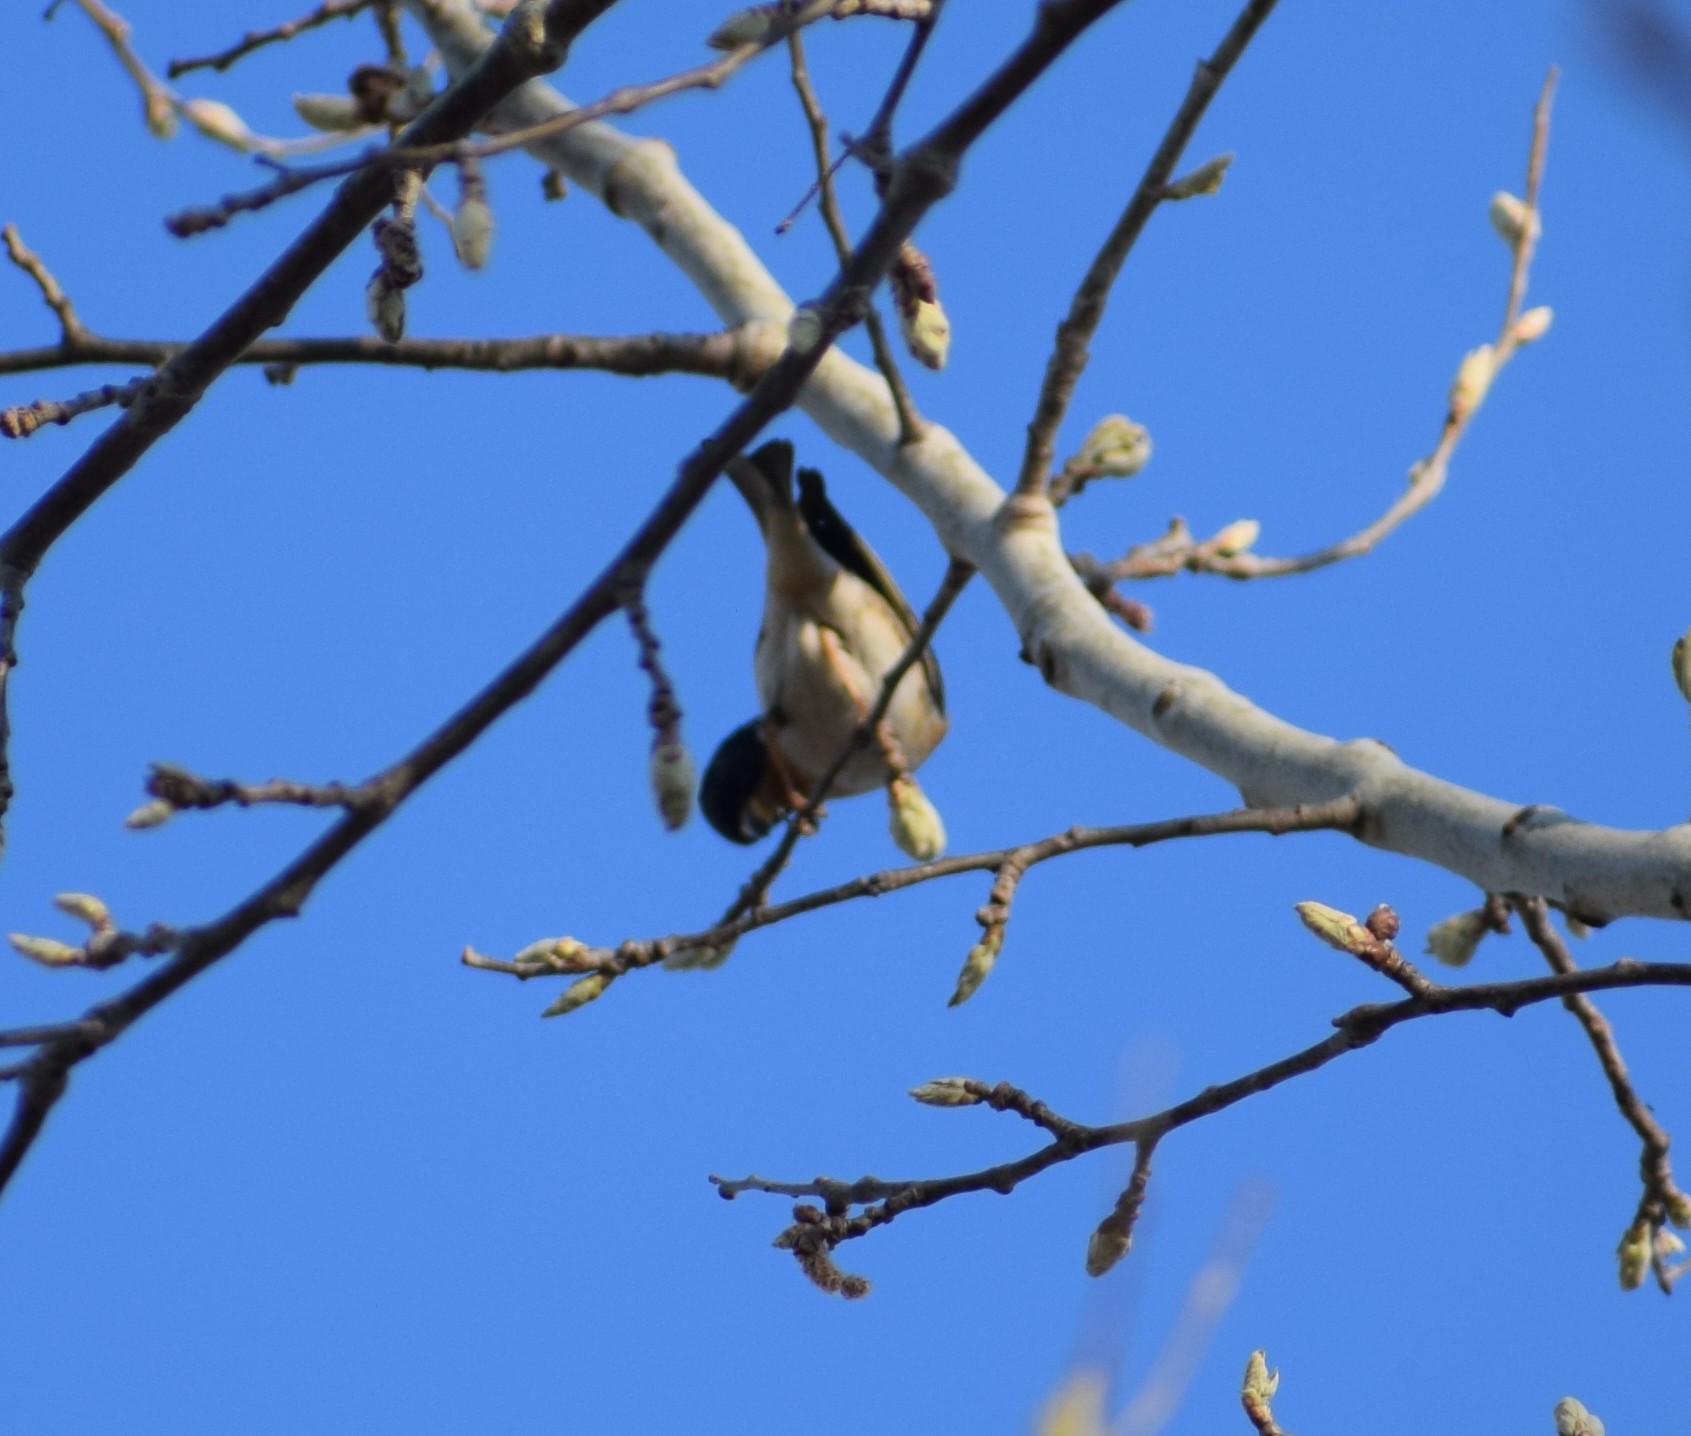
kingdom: Animalia
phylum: Chordata
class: Aves
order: Passeriformes
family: Fringillidae
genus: Fringilla
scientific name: Fringilla montifringilla
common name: Brambling
